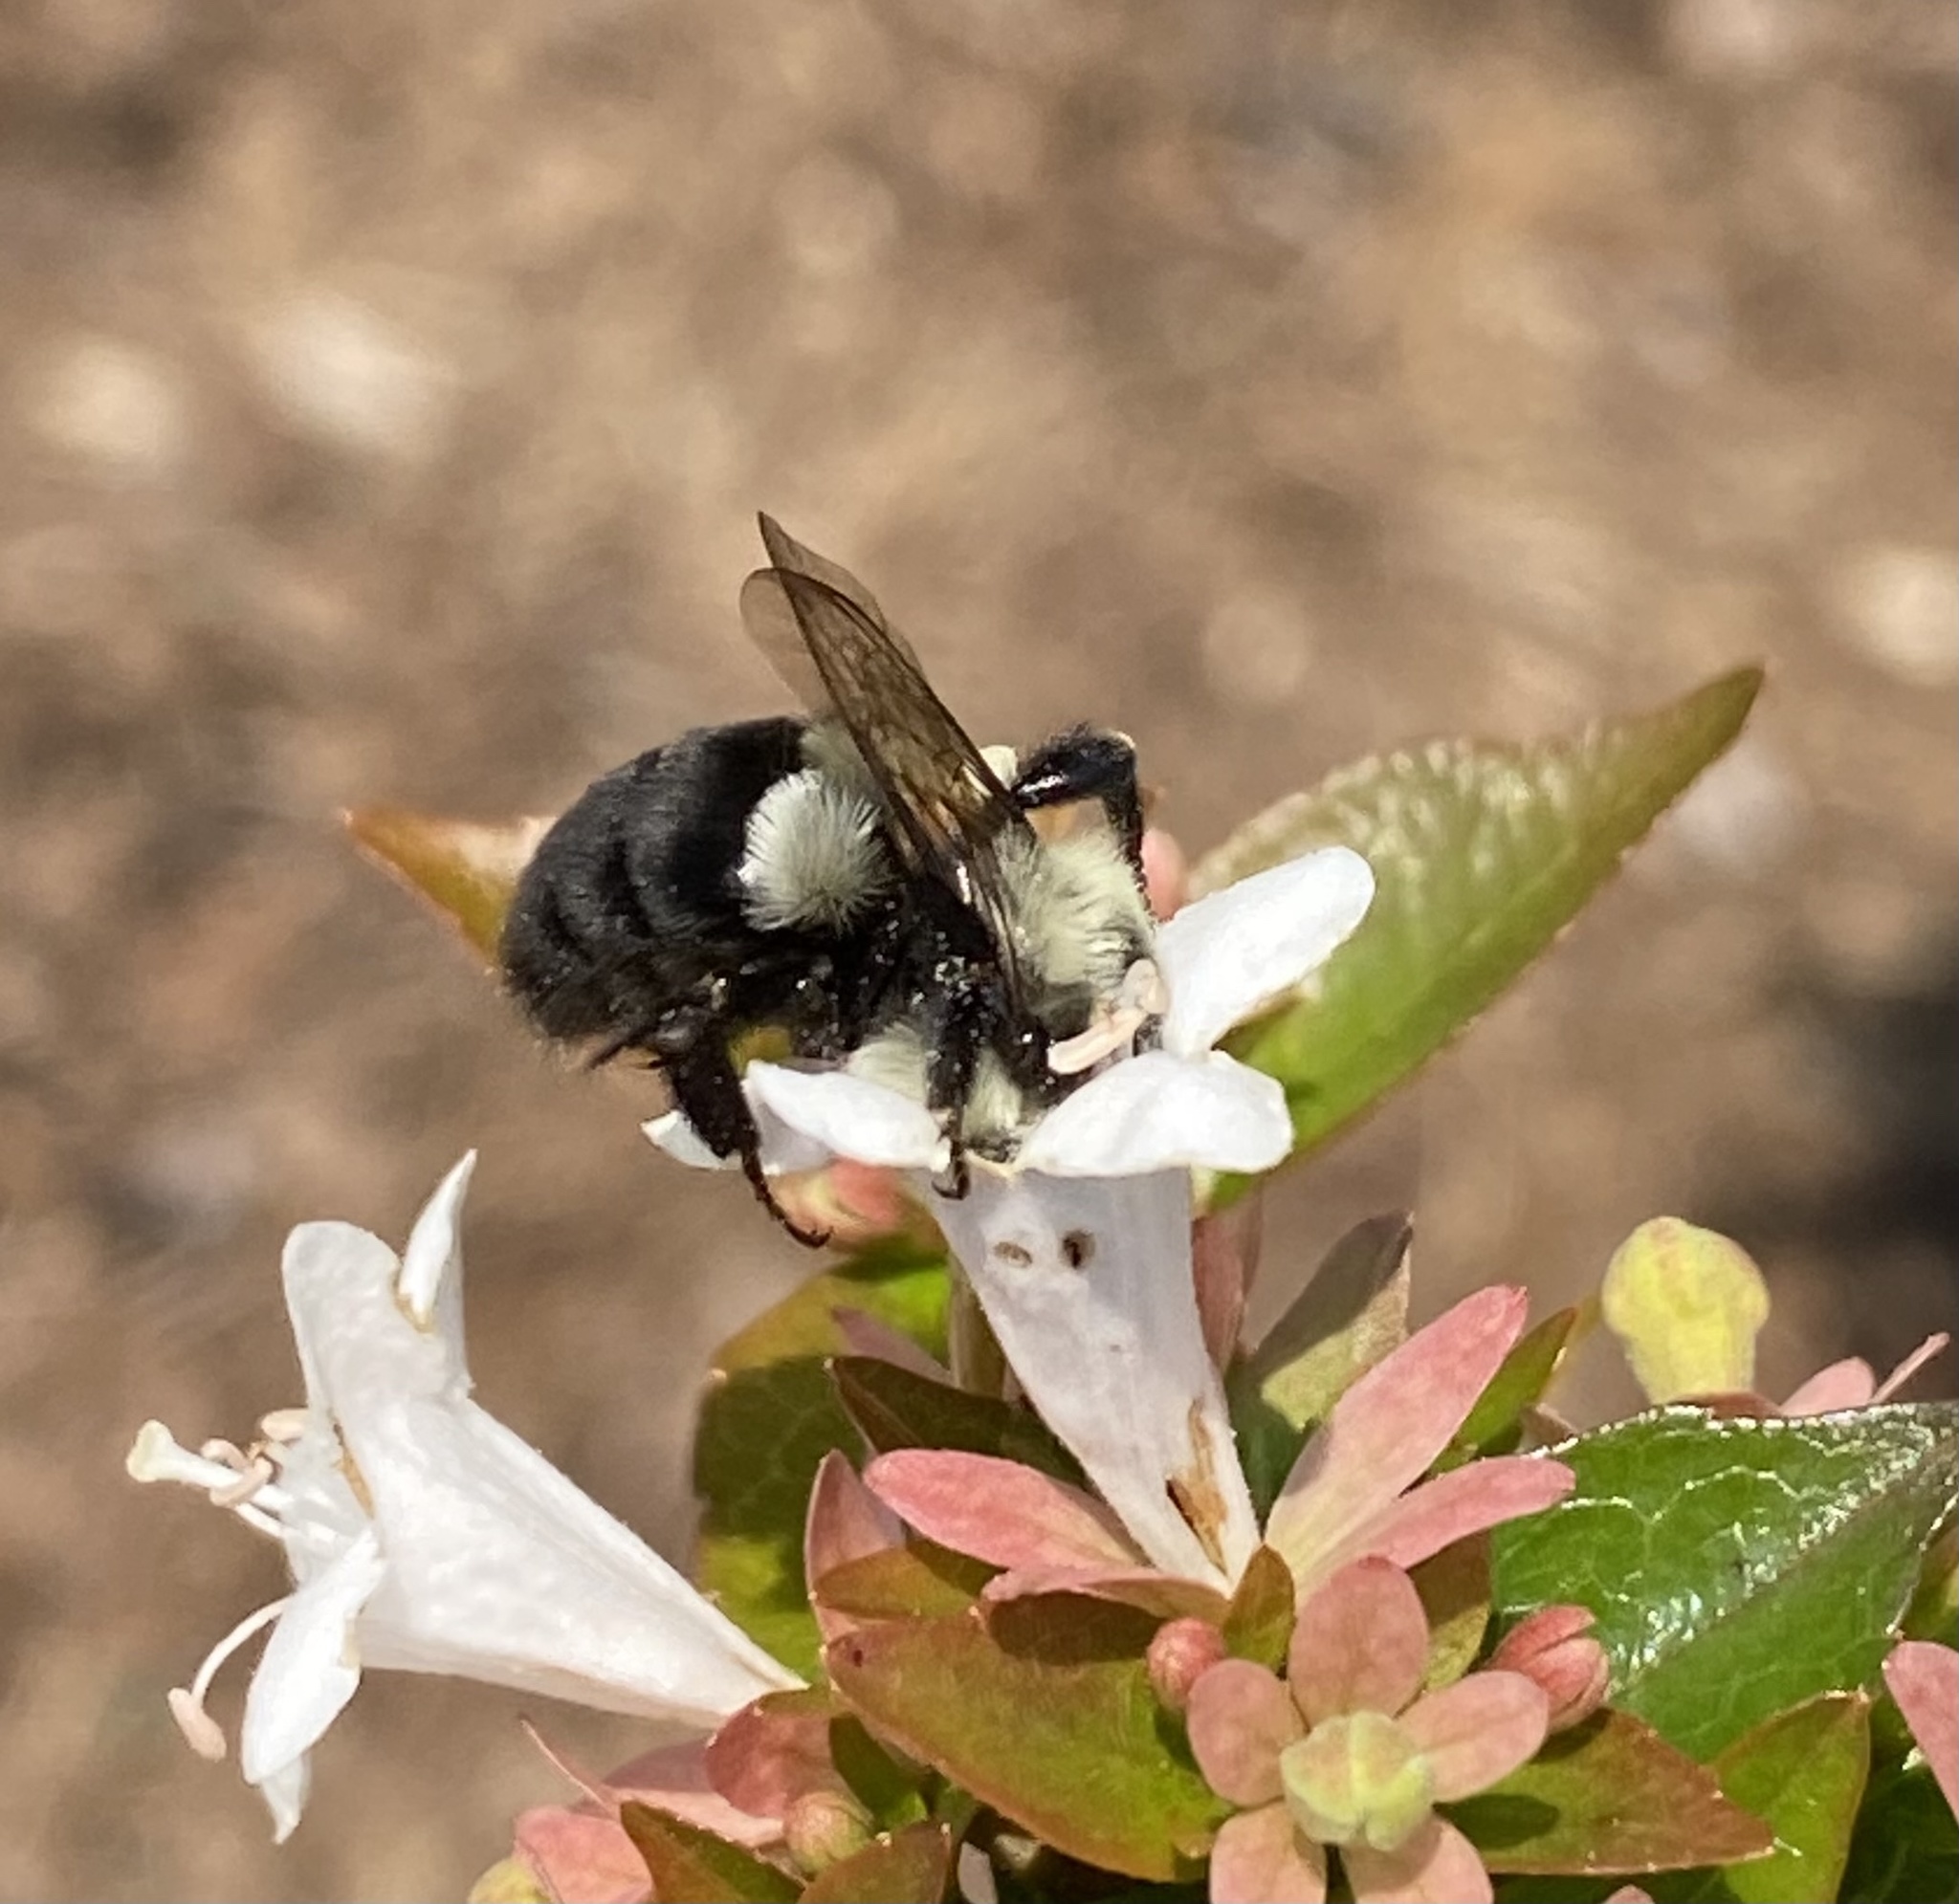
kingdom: Animalia
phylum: Arthropoda
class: Insecta
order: Hymenoptera
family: Apidae
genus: Bombus
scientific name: Bombus impatiens
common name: Common eastern bumble bee
